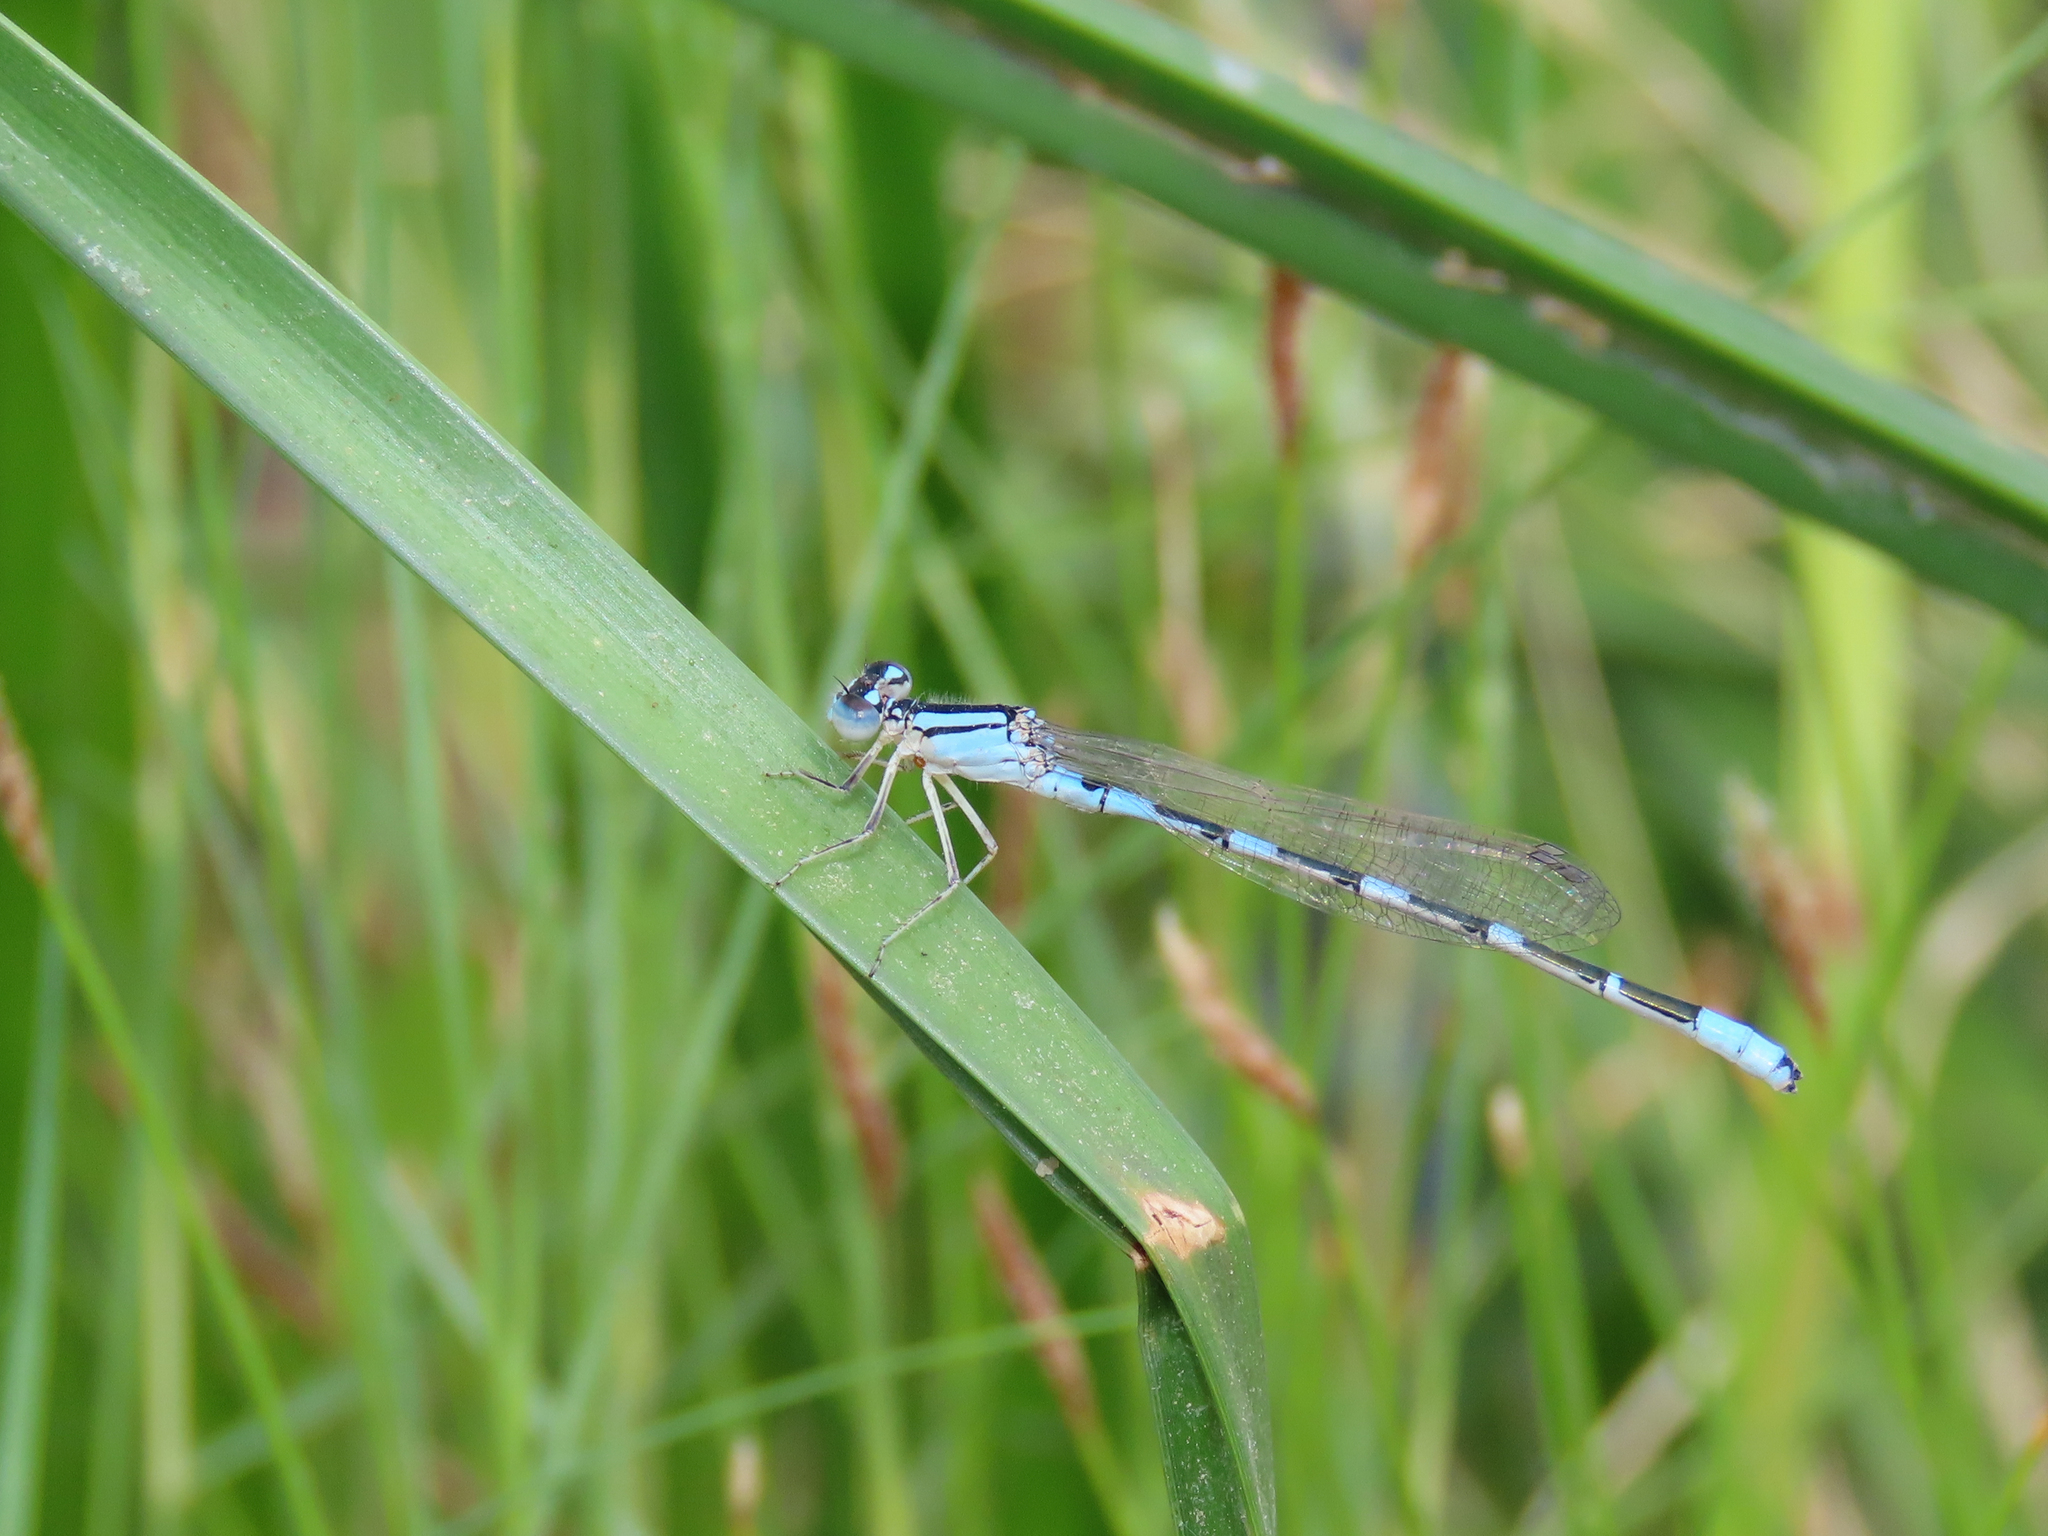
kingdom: Animalia
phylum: Arthropoda
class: Insecta
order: Odonata
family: Coenagrionidae
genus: Enallagma
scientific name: Enallagma carunculatum
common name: Tule bluet
